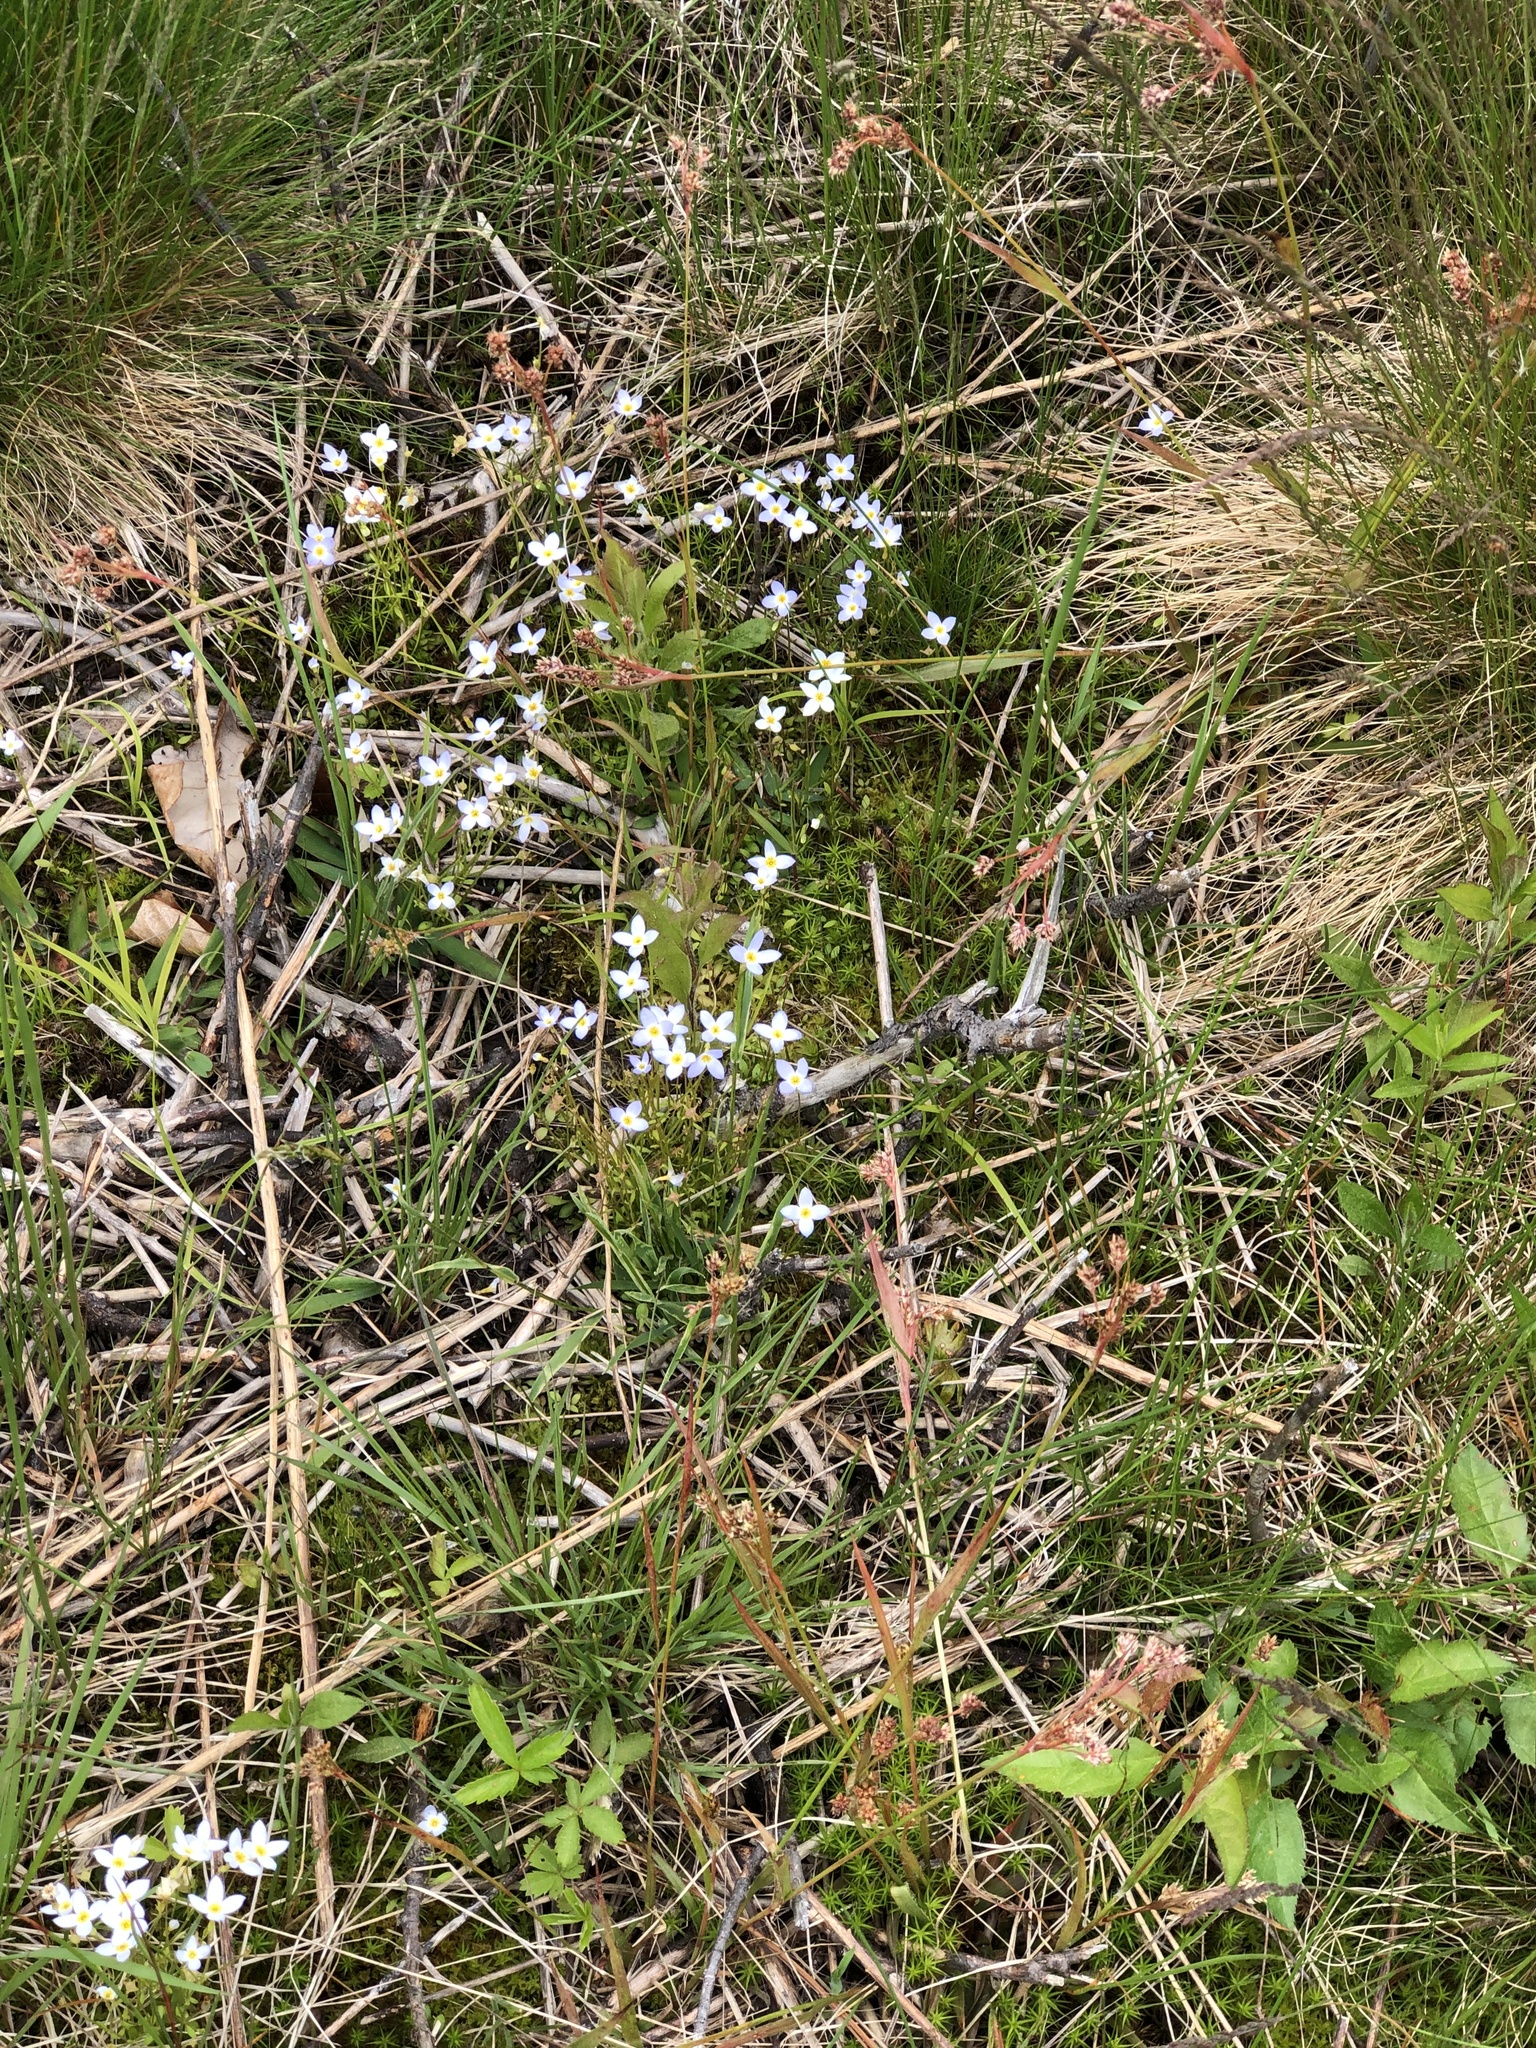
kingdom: Plantae
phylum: Tracheophyta
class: Magnoliopsida
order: Gentianales
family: Rubiaceae
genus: Houstonia
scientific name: Houstonia caerulea
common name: Bluets
